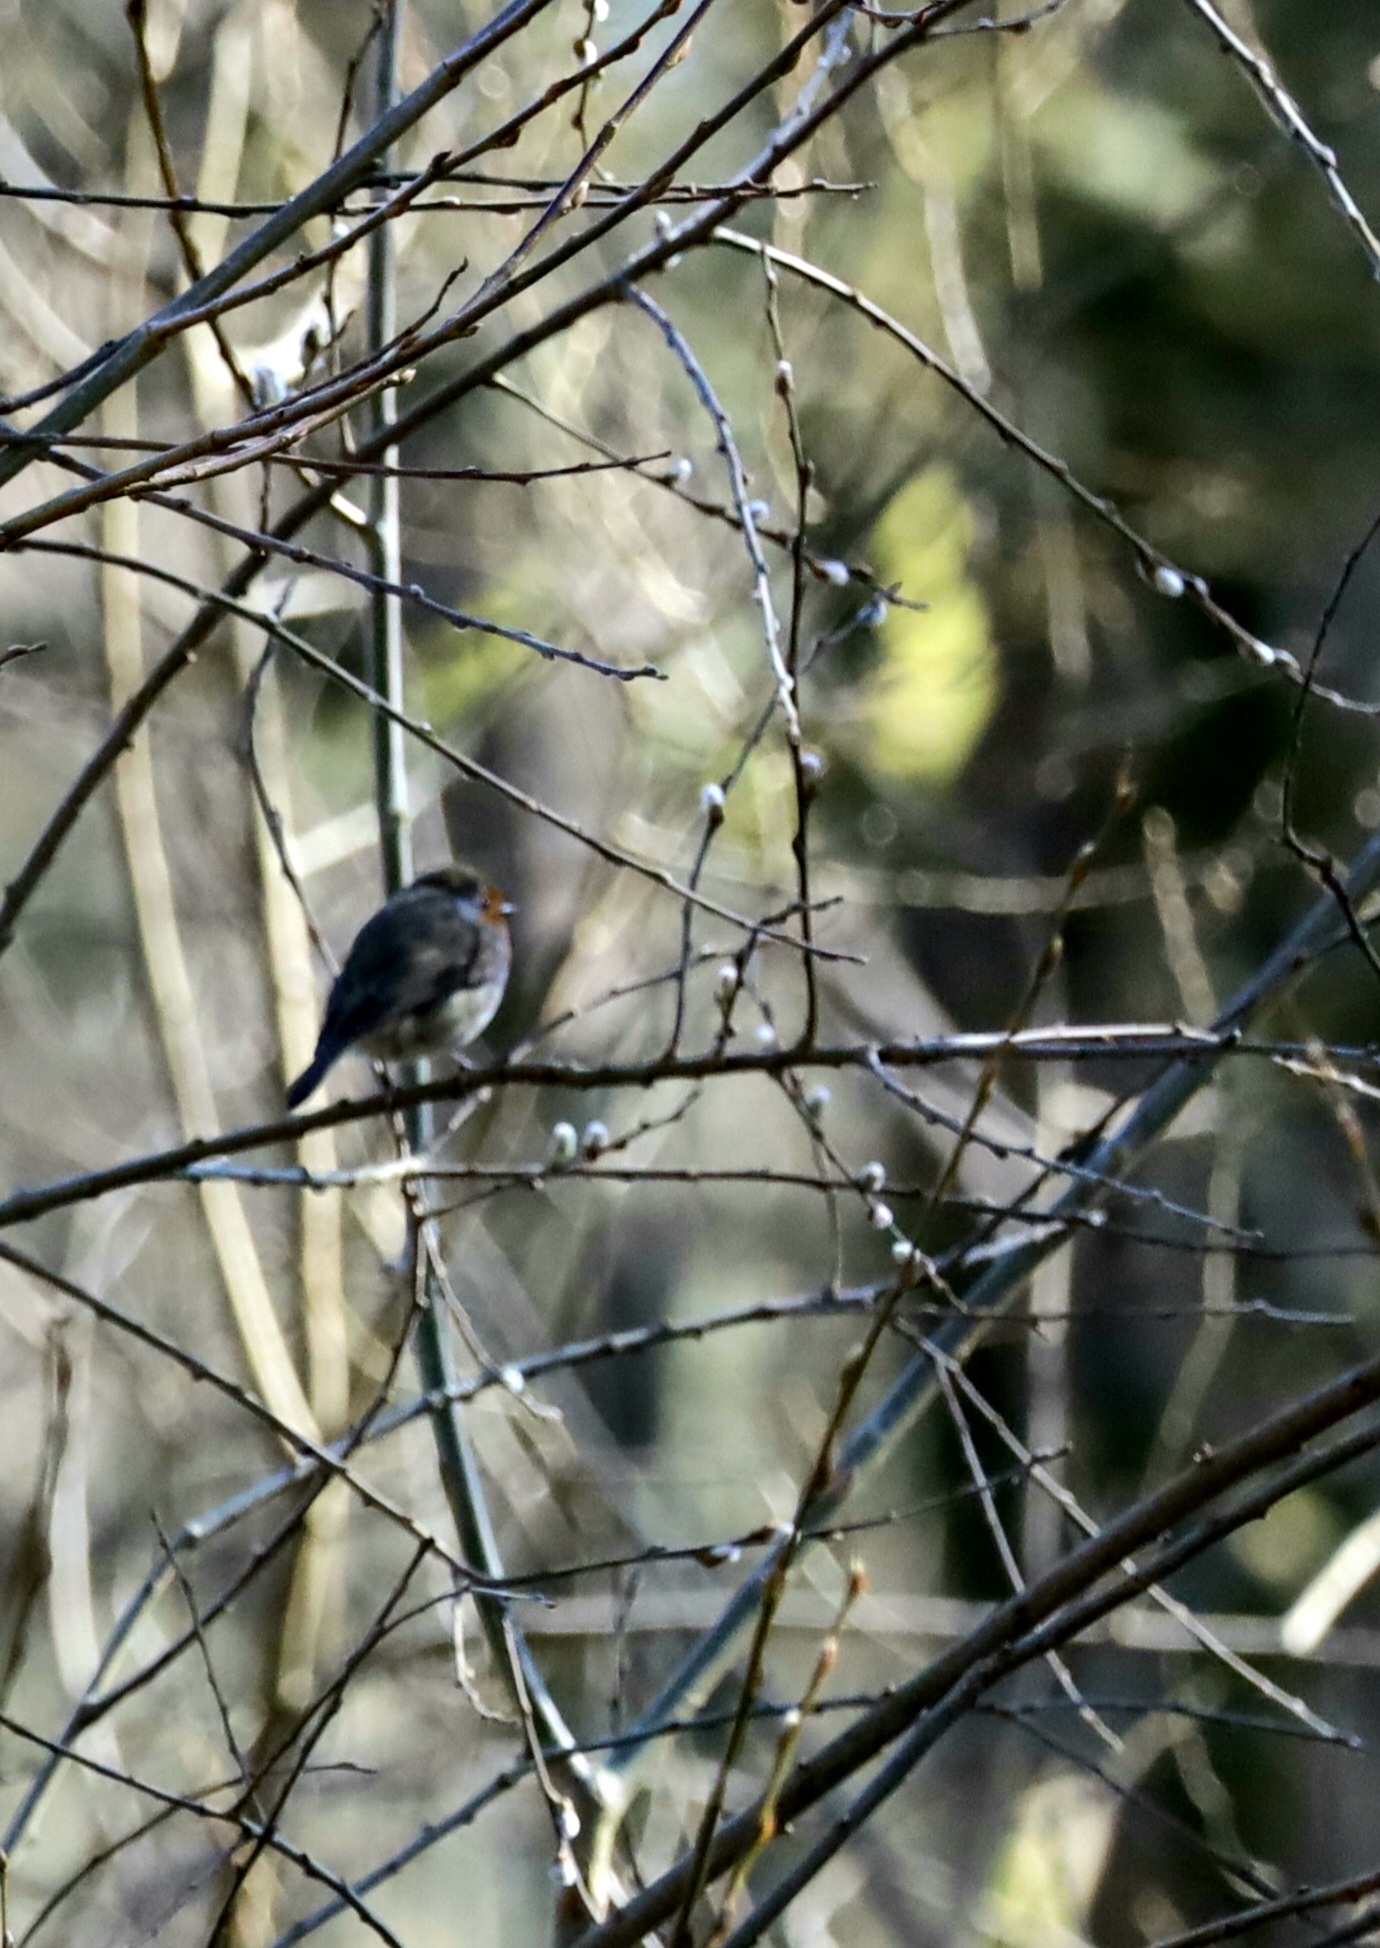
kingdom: Animalia
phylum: Chordata
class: Aves
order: Passeriformes
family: Muscicapidae
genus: Erithacus
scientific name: Erithacus rubecula
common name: European robin
